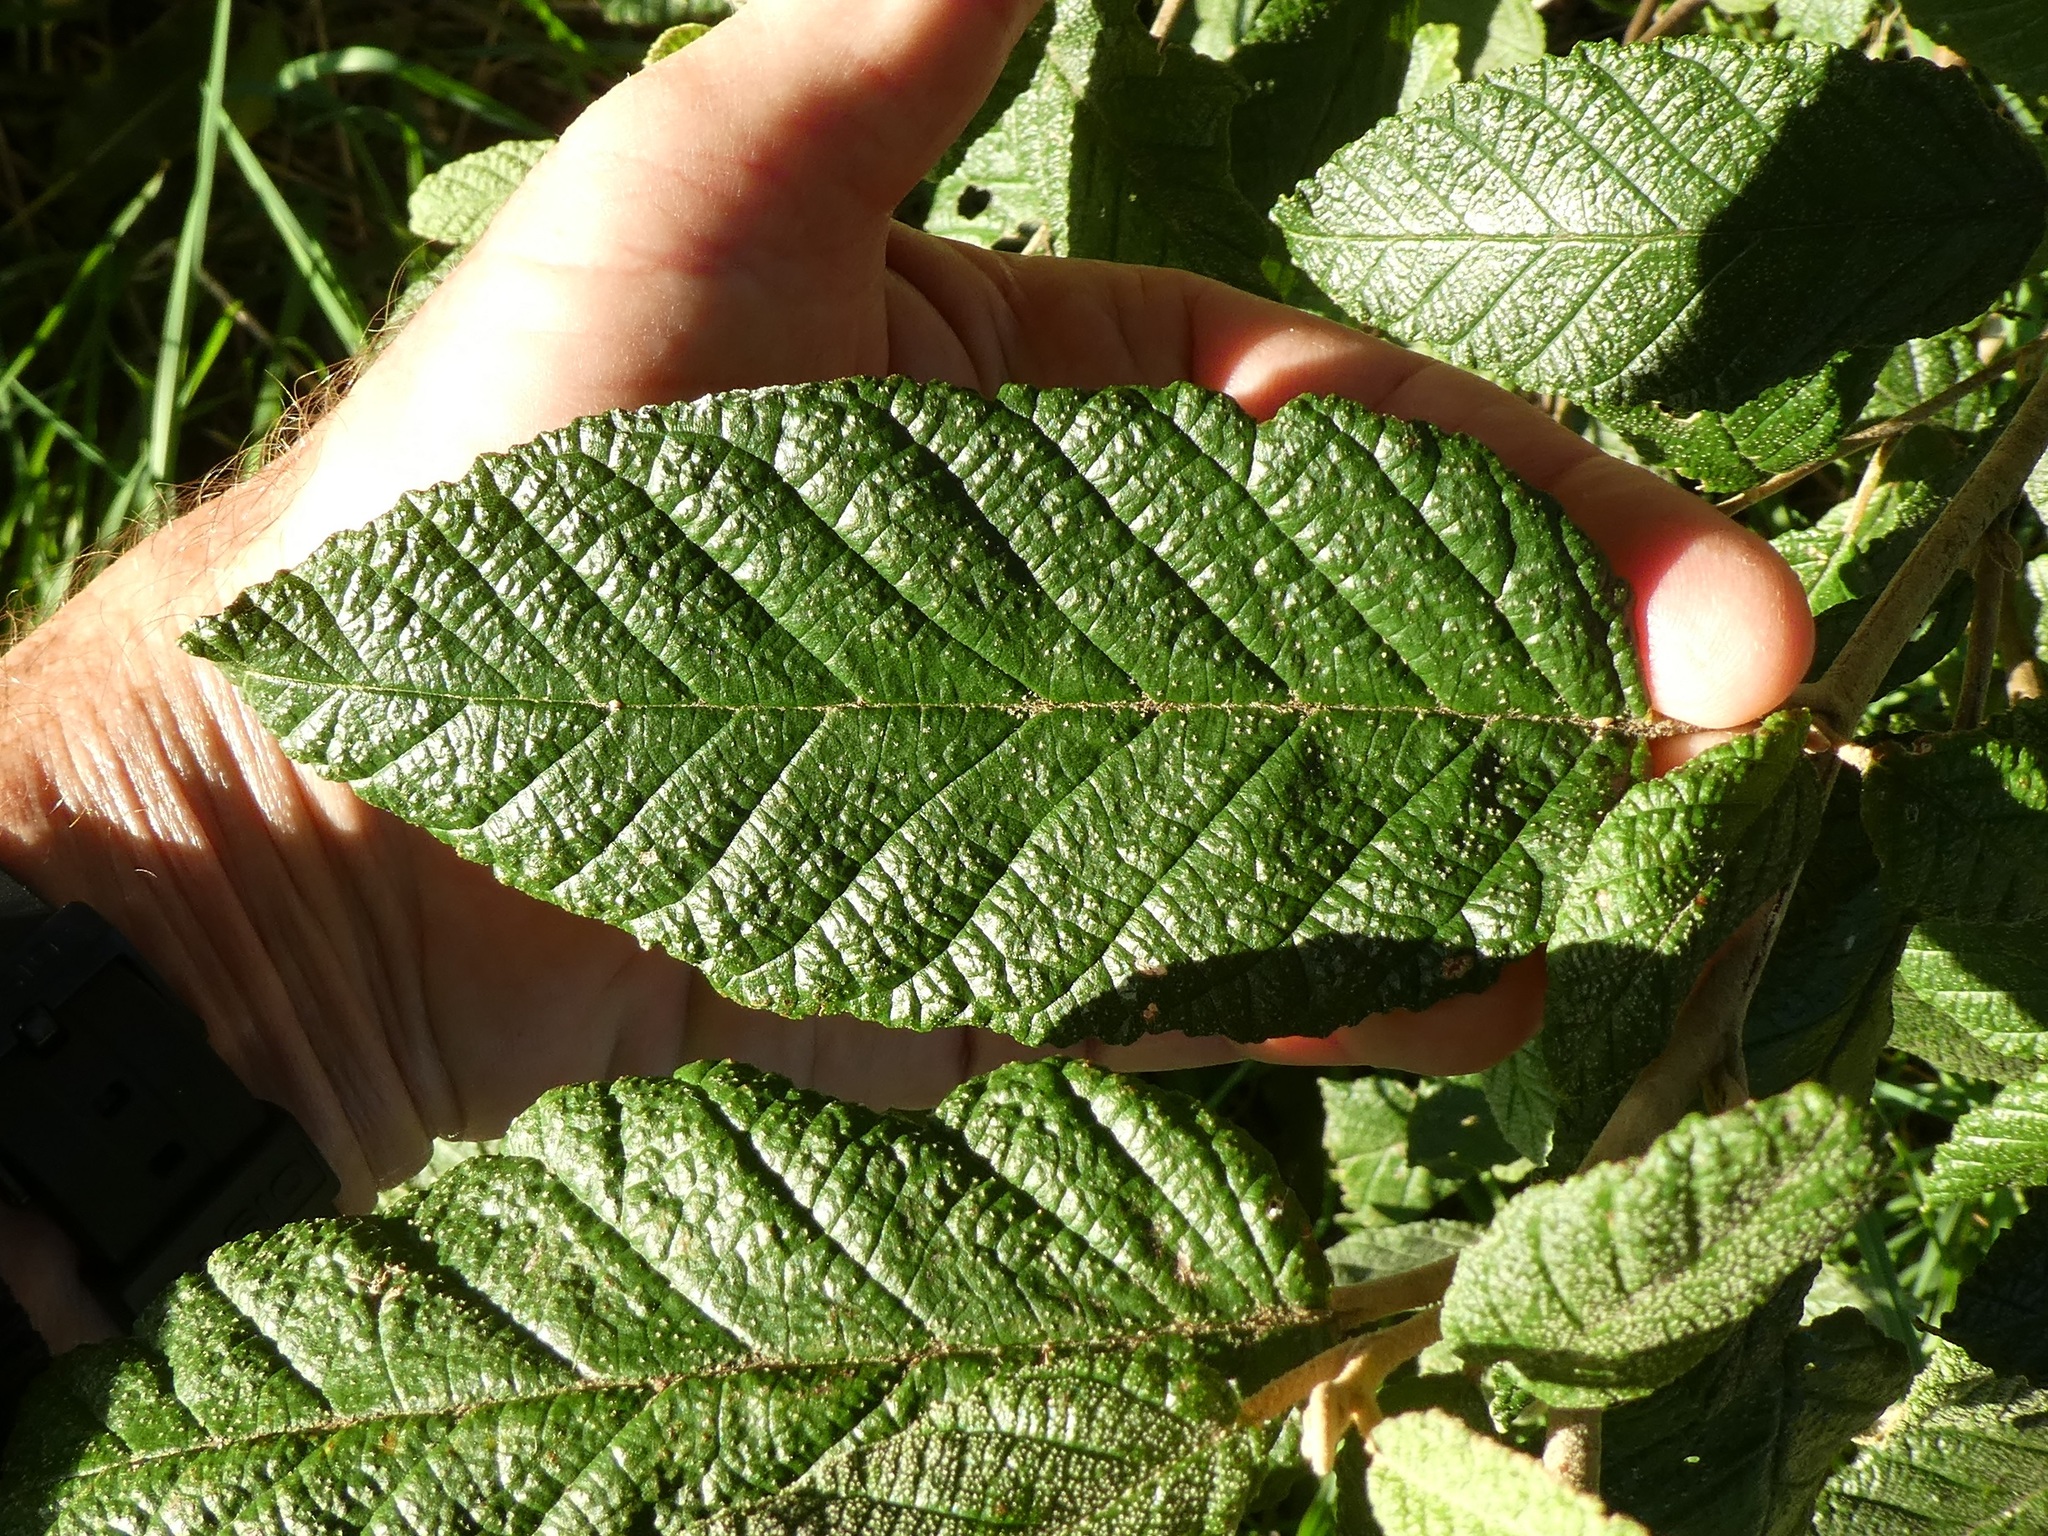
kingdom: Plantae
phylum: Tracheophyta
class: Magnoliopsida
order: Rosales
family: Rhamnaceae
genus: Pomaderris
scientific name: Pomaderris aspera
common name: Hazel pomaderris
